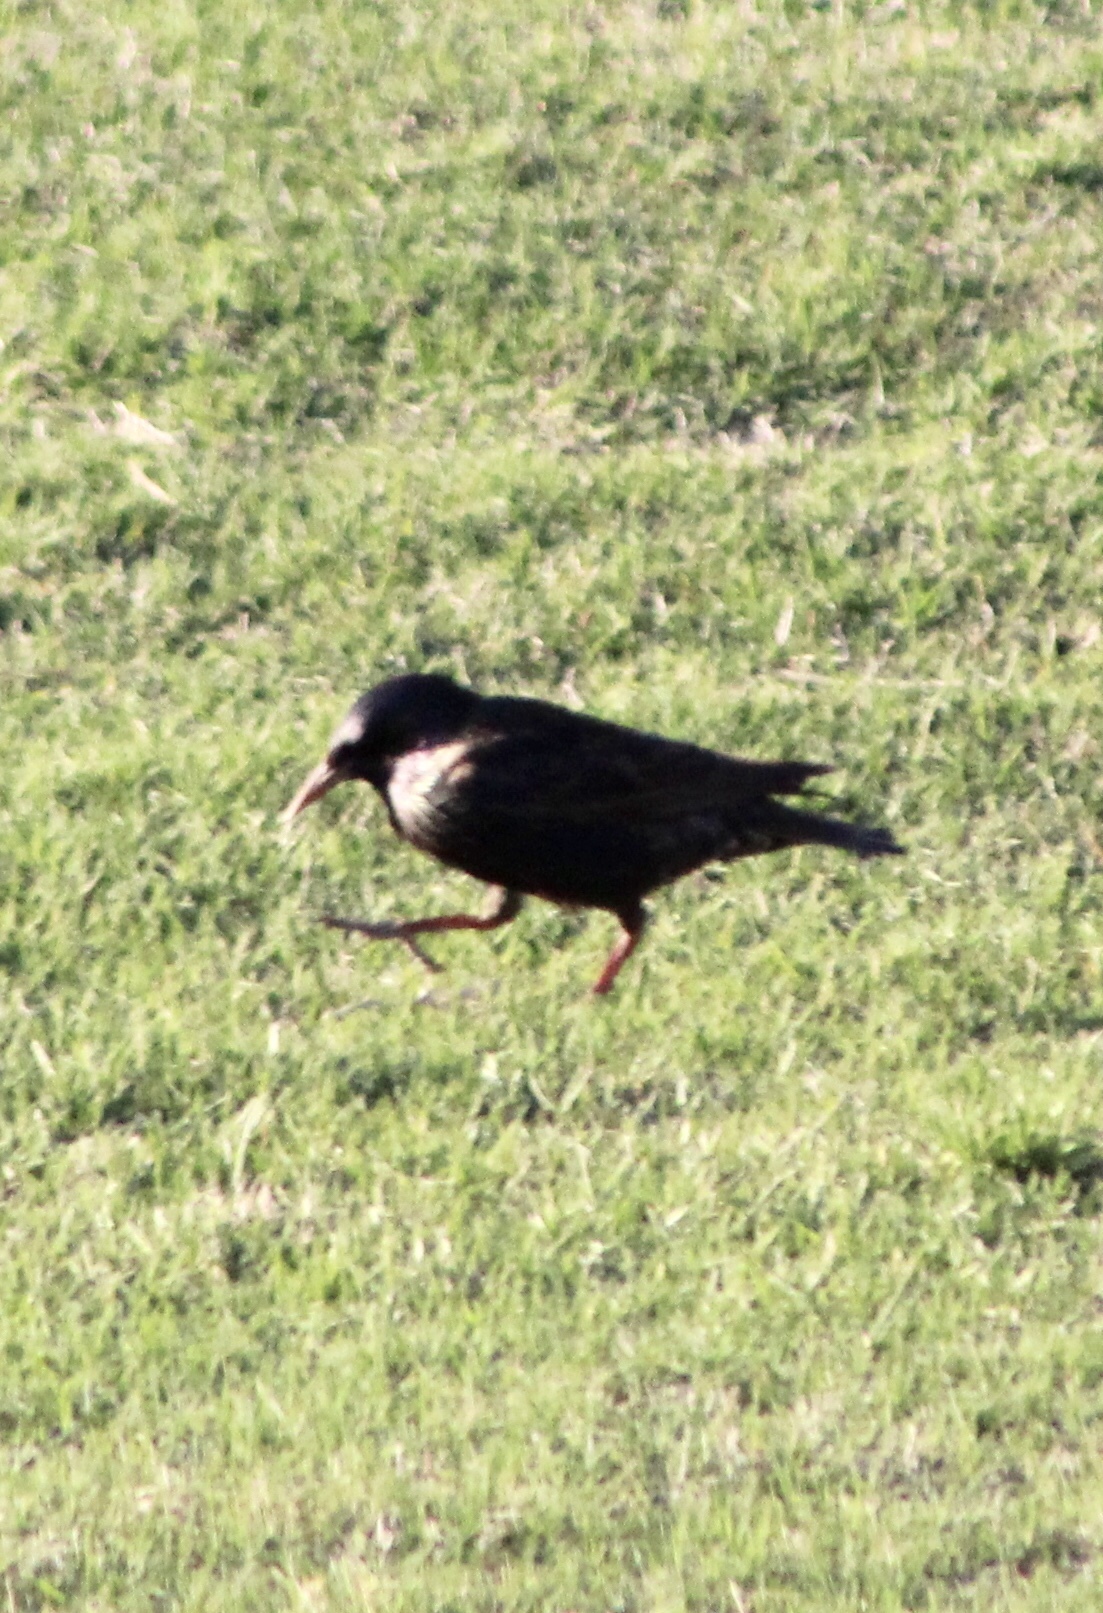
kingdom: Animalia
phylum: Chordata
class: Aves
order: Passeriformes
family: Sturnidae
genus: Sturnus
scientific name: Sturnus vulgaris
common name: Common starling
